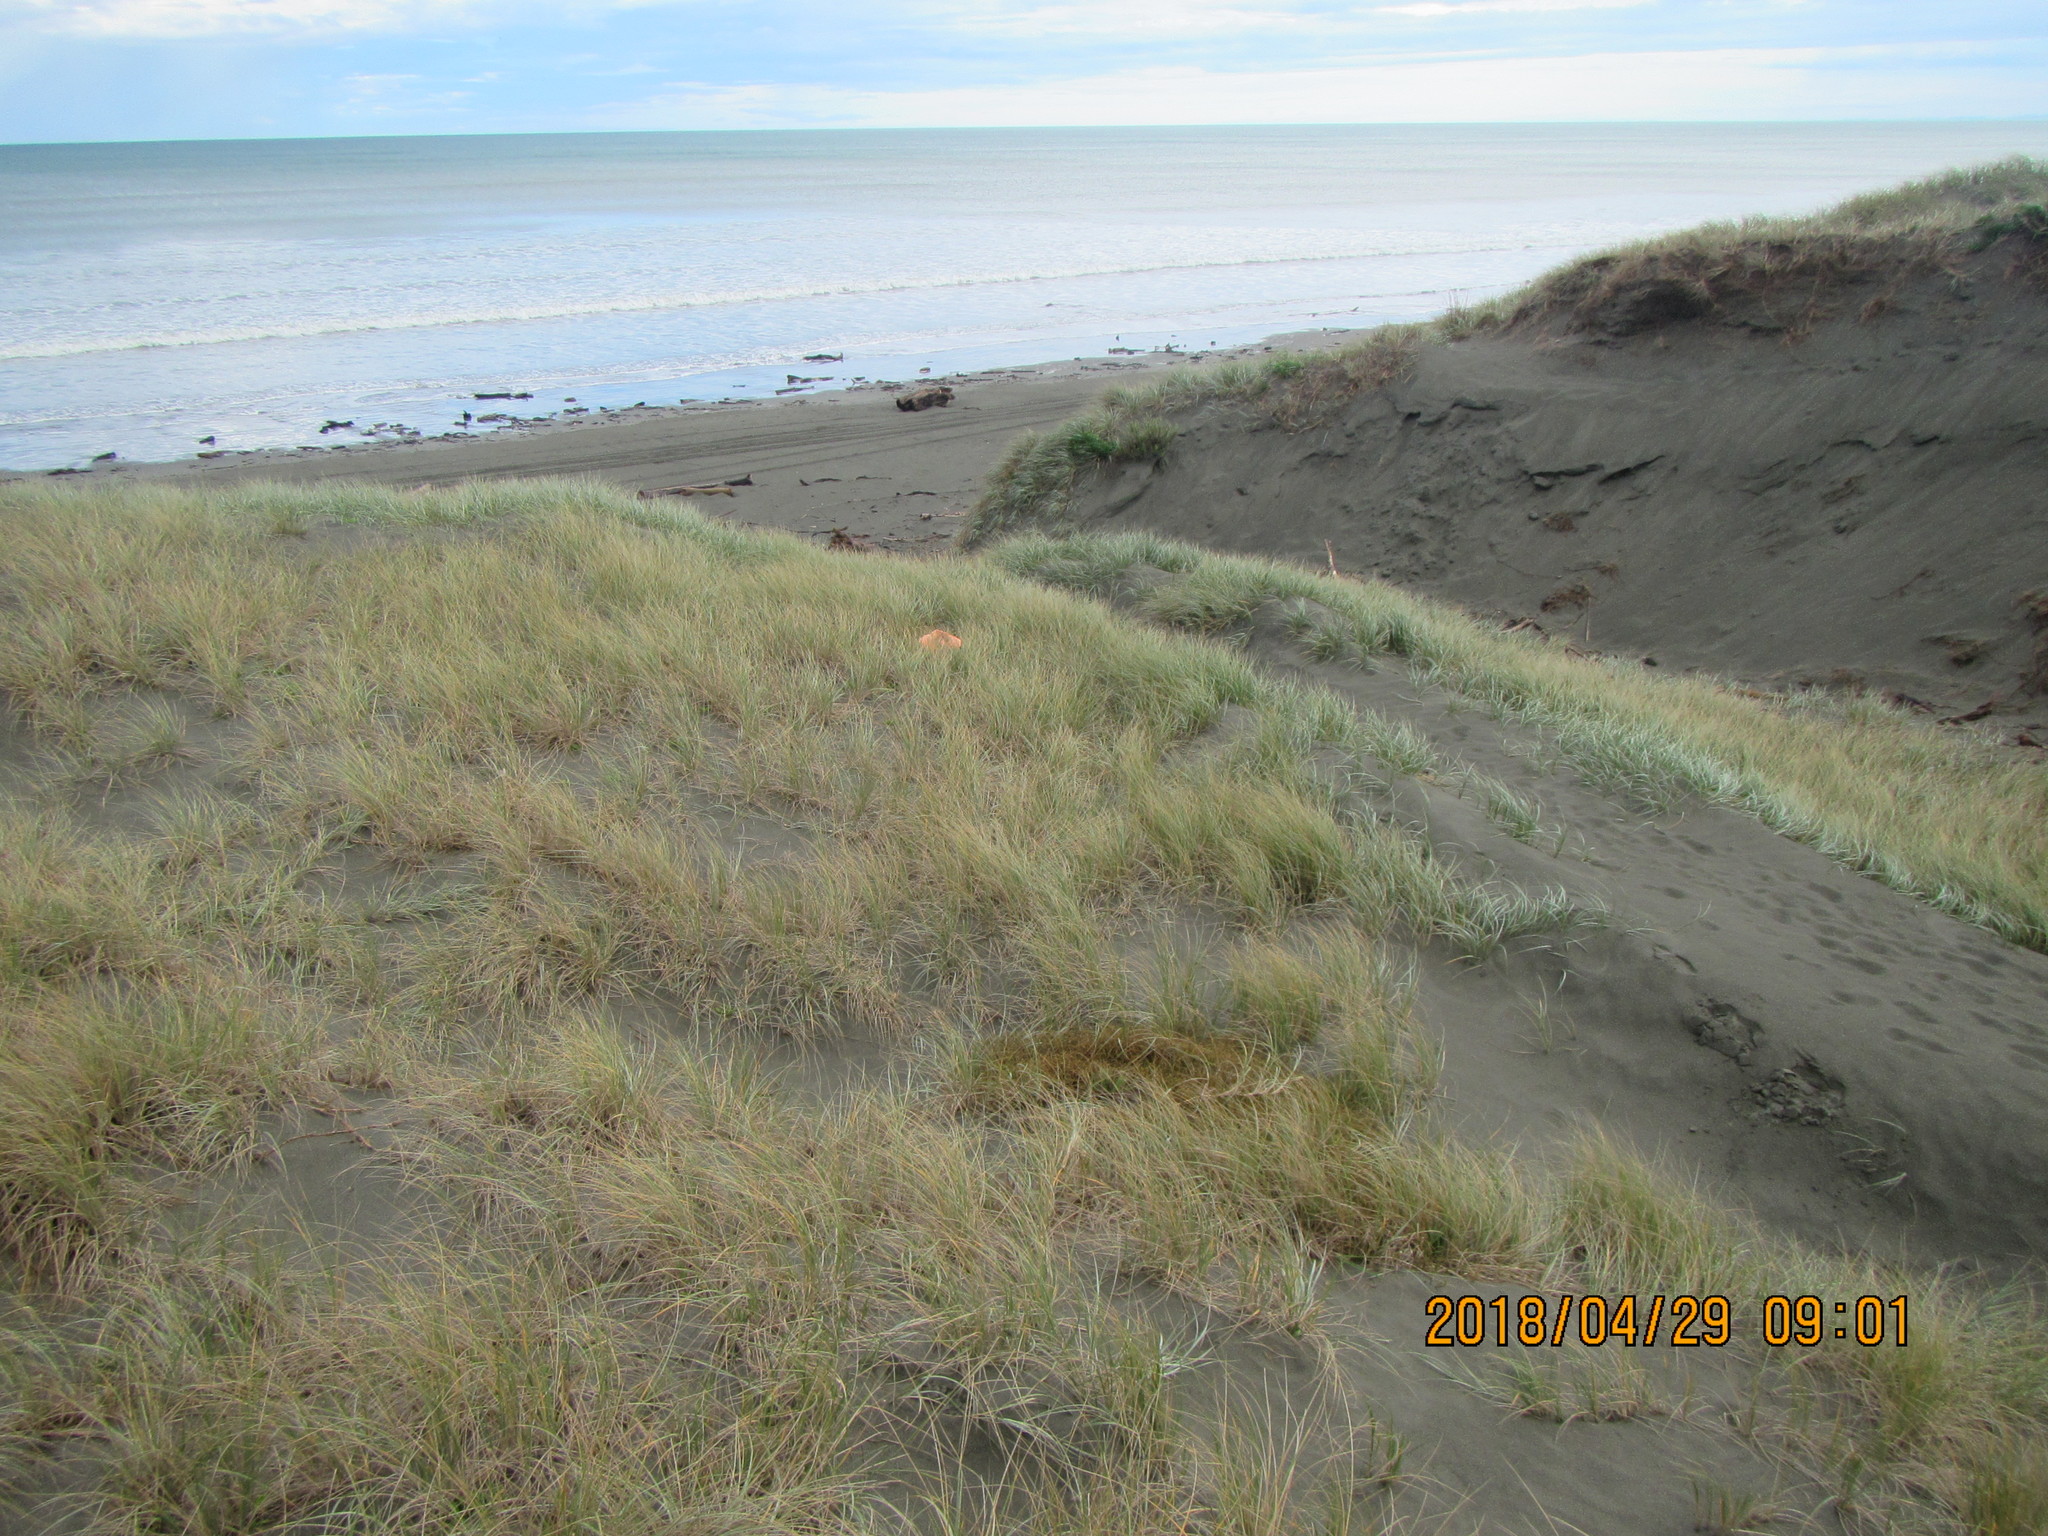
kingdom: Plantae
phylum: Tracheophyta
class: Magnoliopsida
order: Gentianales
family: Rubiaceae
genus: Coprosma
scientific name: Coprosma acerosa
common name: Sand coprosma
